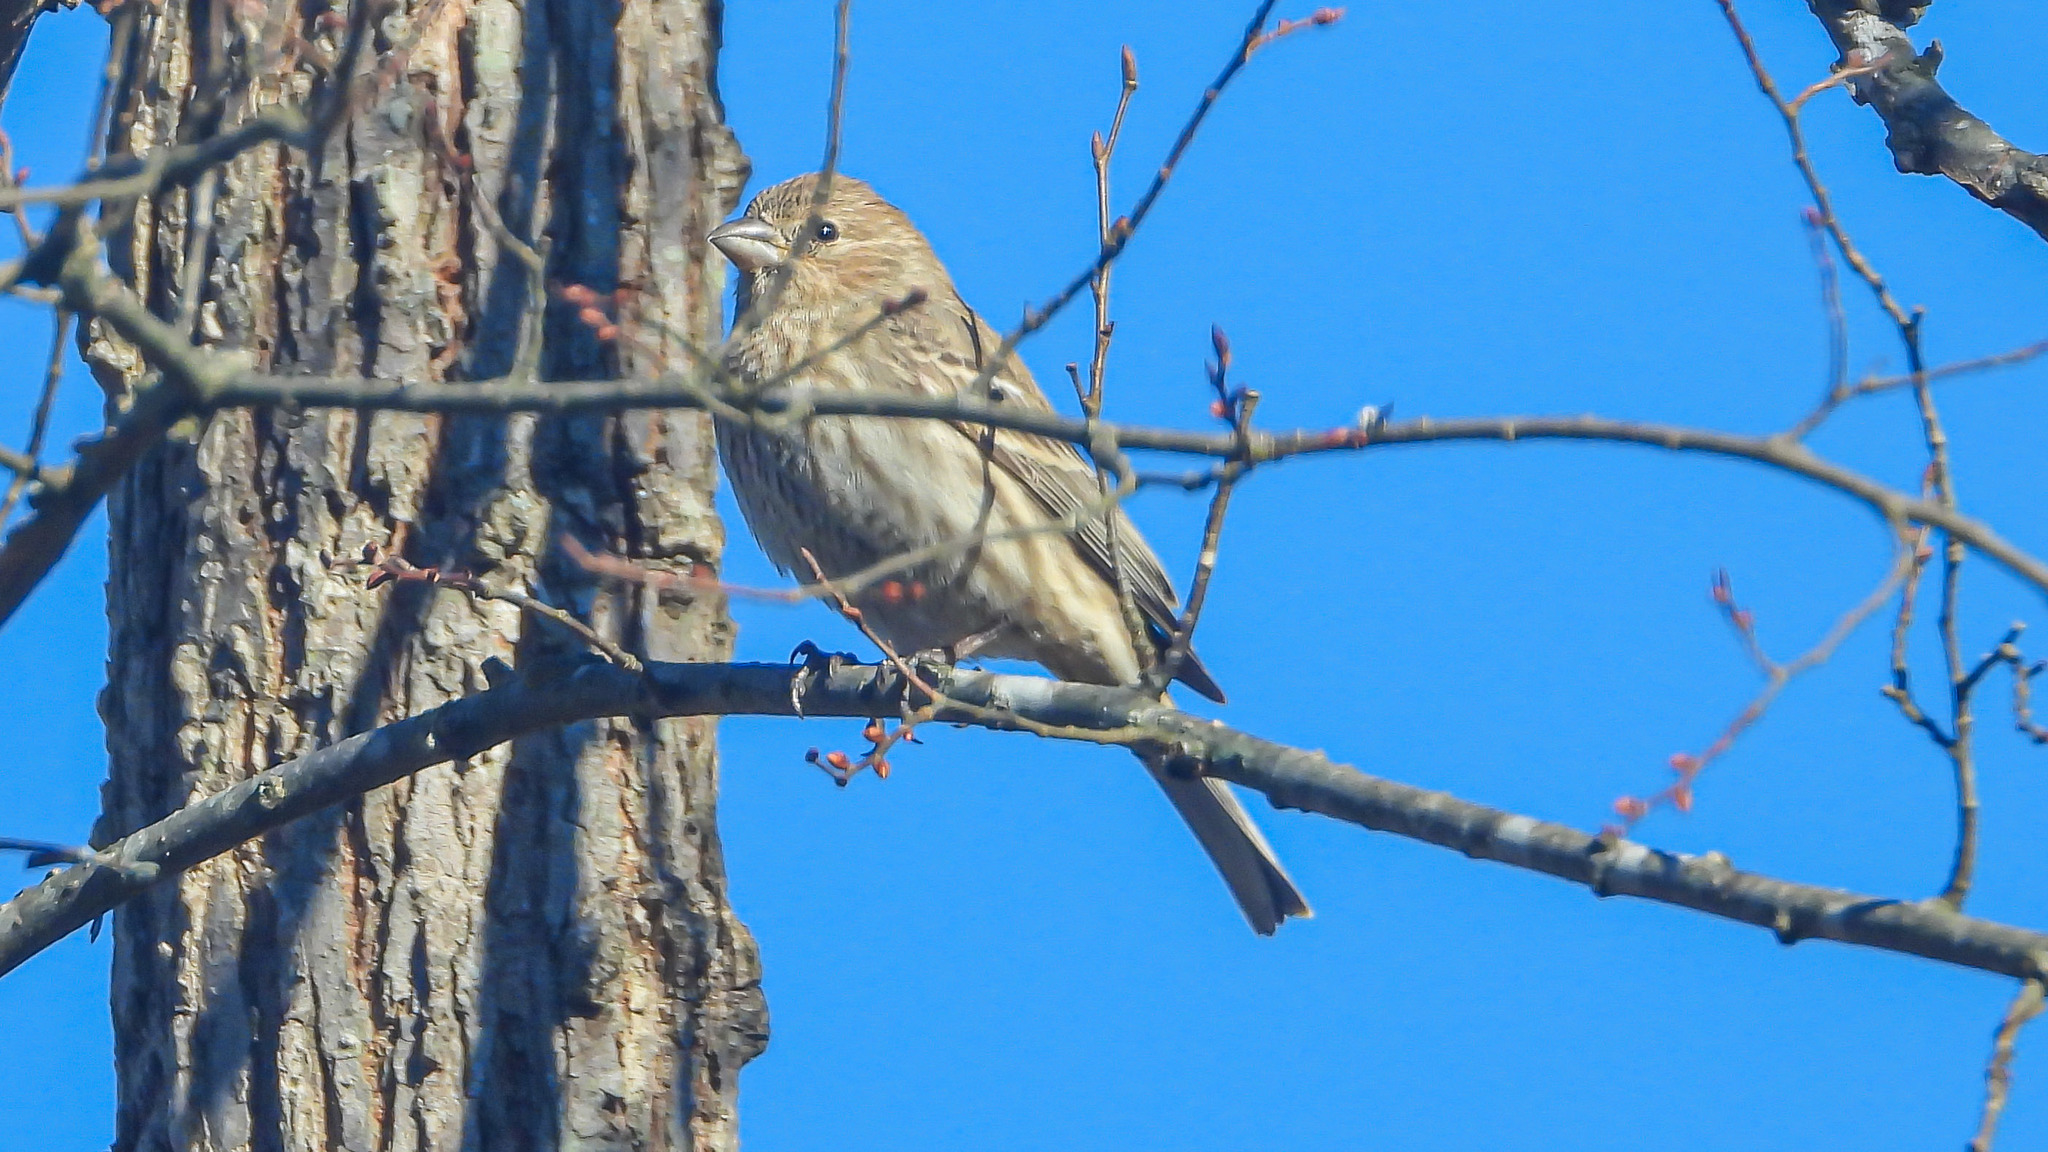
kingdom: Animalia
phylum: Chordata
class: Aves
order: Passeriformes
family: Fringillidae
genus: Haemorhous
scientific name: Haemorhous mexicanus
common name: House finch
